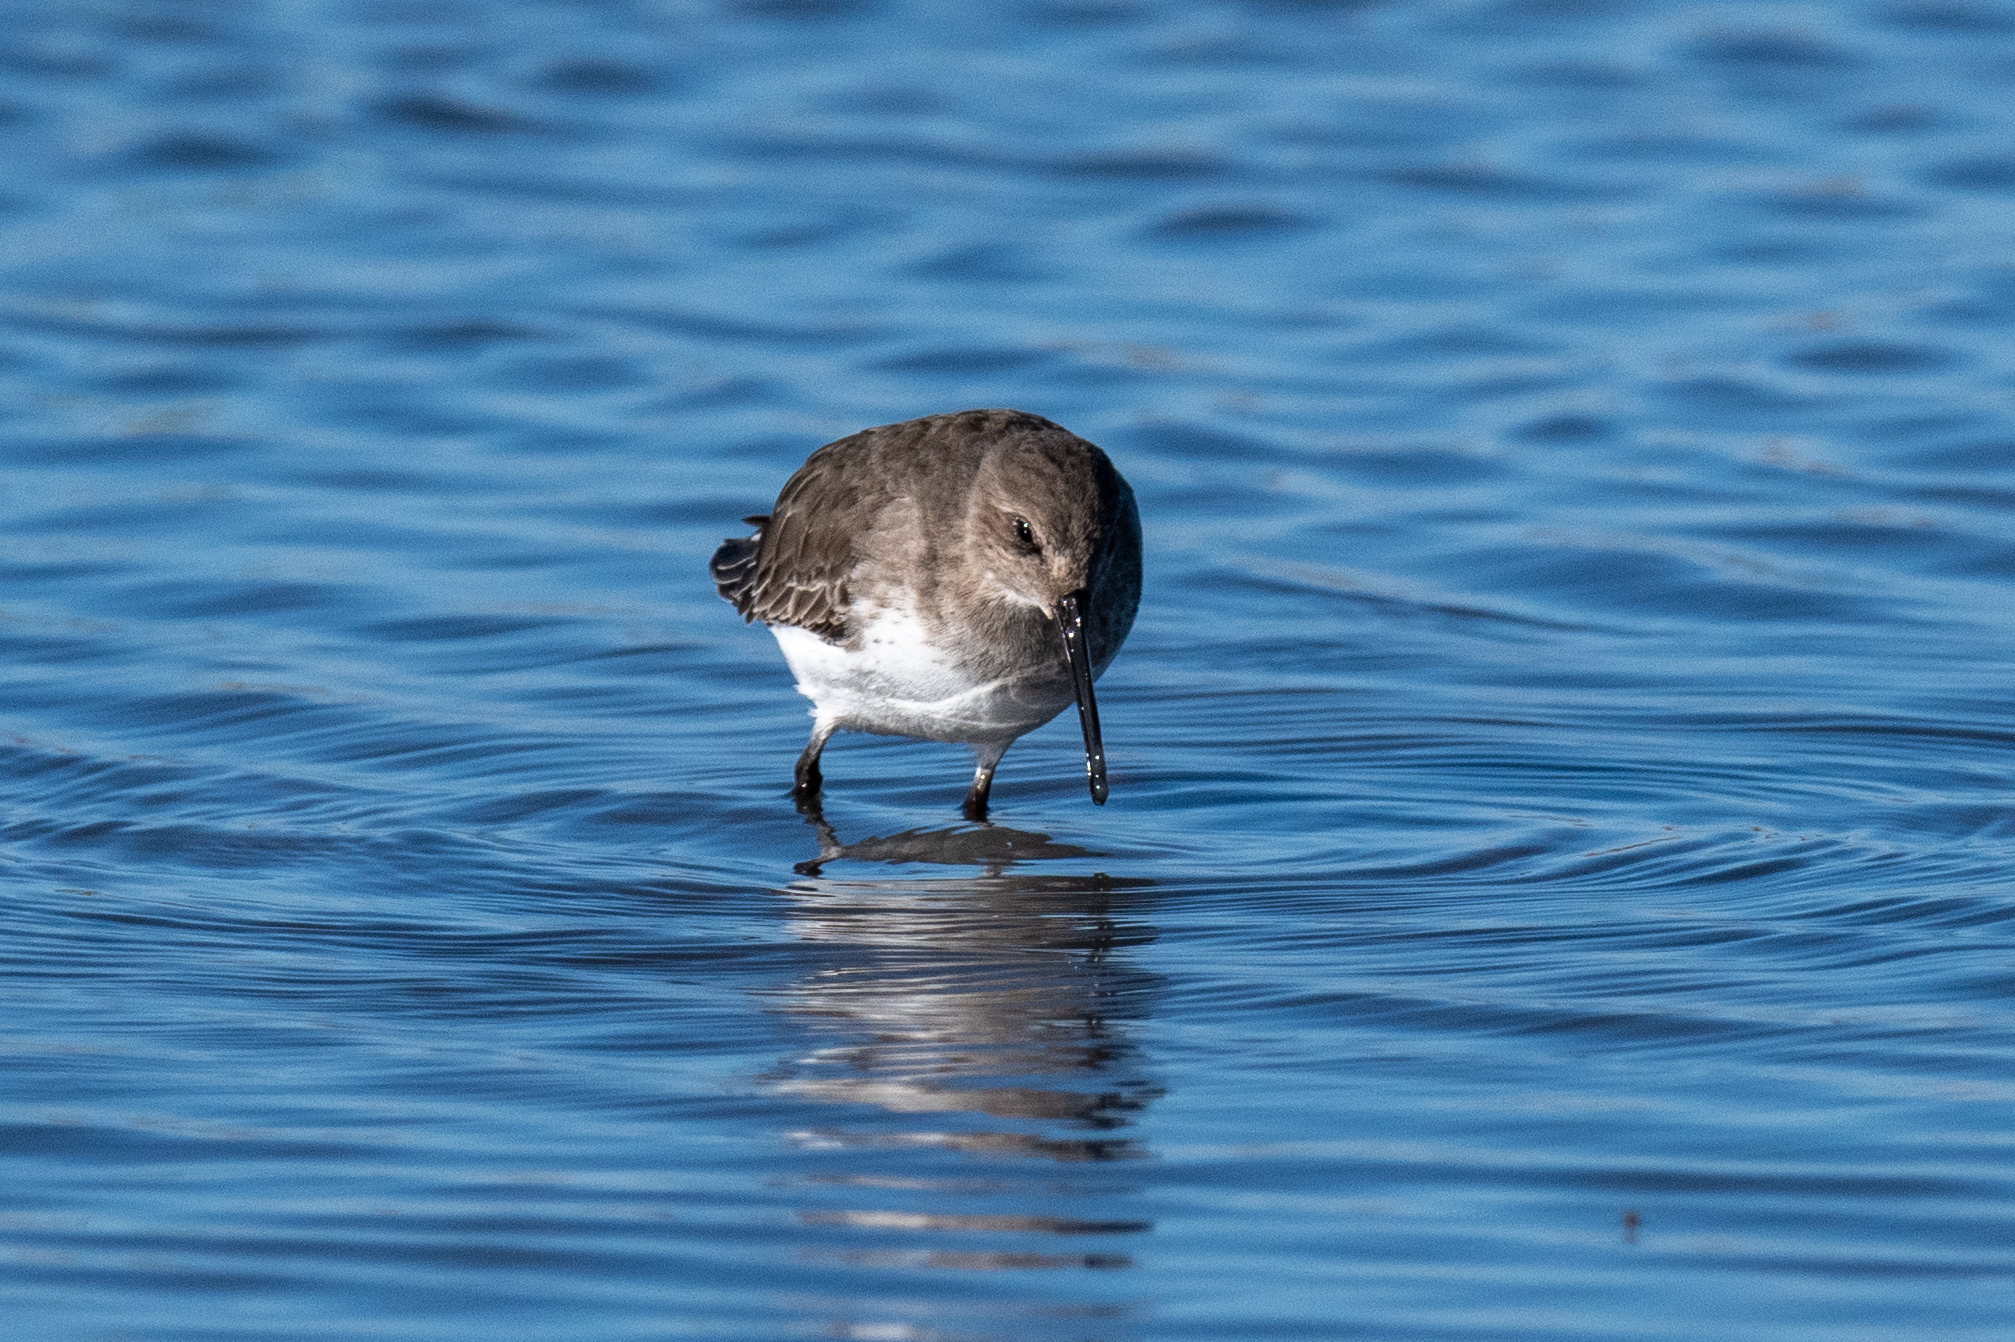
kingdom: Animalia
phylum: Chordata
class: Aves
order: Charadriiformes
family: Scolopacidae
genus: Calidris
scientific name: Calidris alpina
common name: Dunlin
